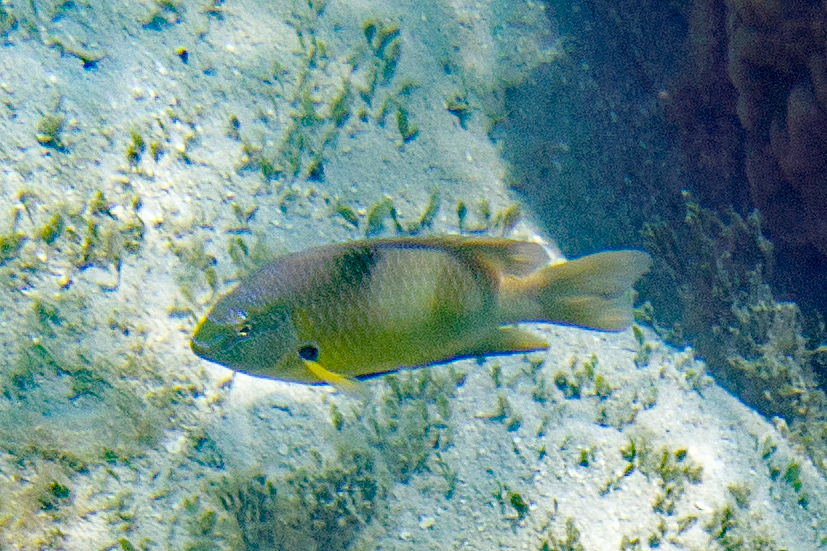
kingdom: Animalia
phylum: Chordata
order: Perciformes
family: Pomacentridae
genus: Dischistodus
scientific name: Dischistodus prosopotaenia
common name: Honey-head damsel
